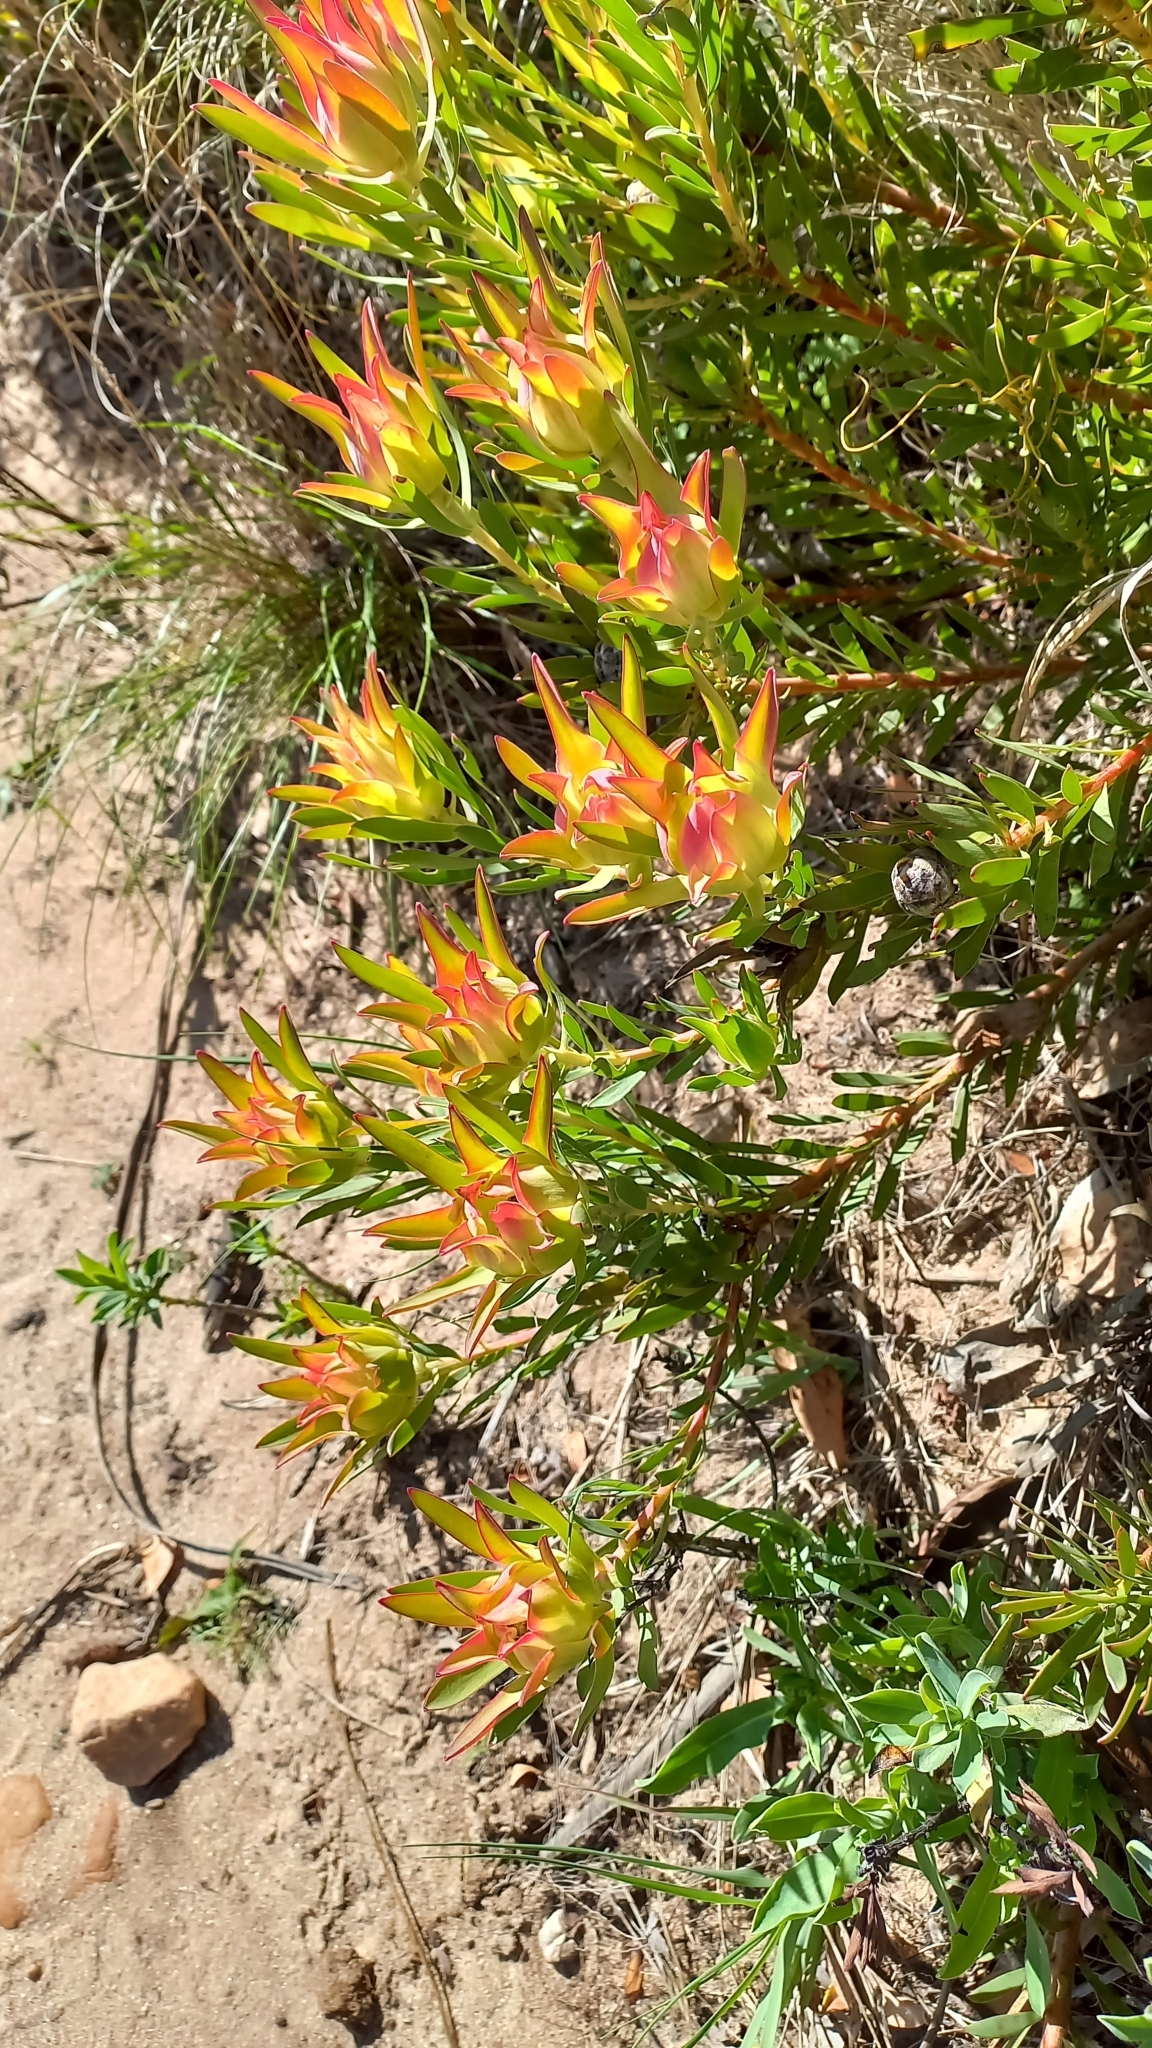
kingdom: Plantae
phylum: Tracheophyta
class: Magnoliopsida
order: Proteales
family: Proteaceae
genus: Leucadendron
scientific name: Leucadendron salignum
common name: Common sunshine conebush
